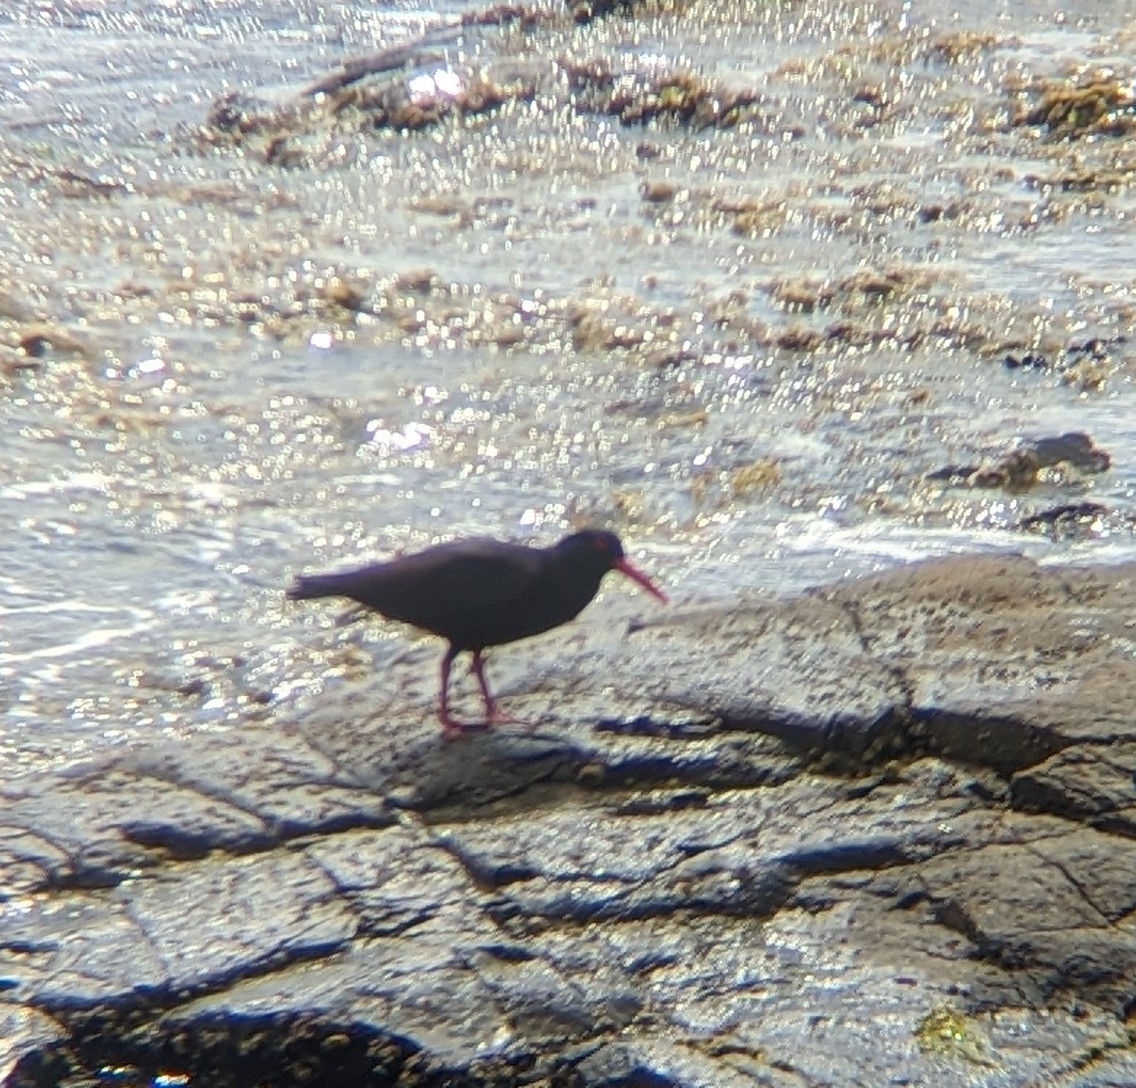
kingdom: Animalia
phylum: Chordata
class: Aves
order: Charadriiformes
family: Haematopodidae
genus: Haematopus
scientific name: Haematopus fuliginosus
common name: Sooty oystercatcher
